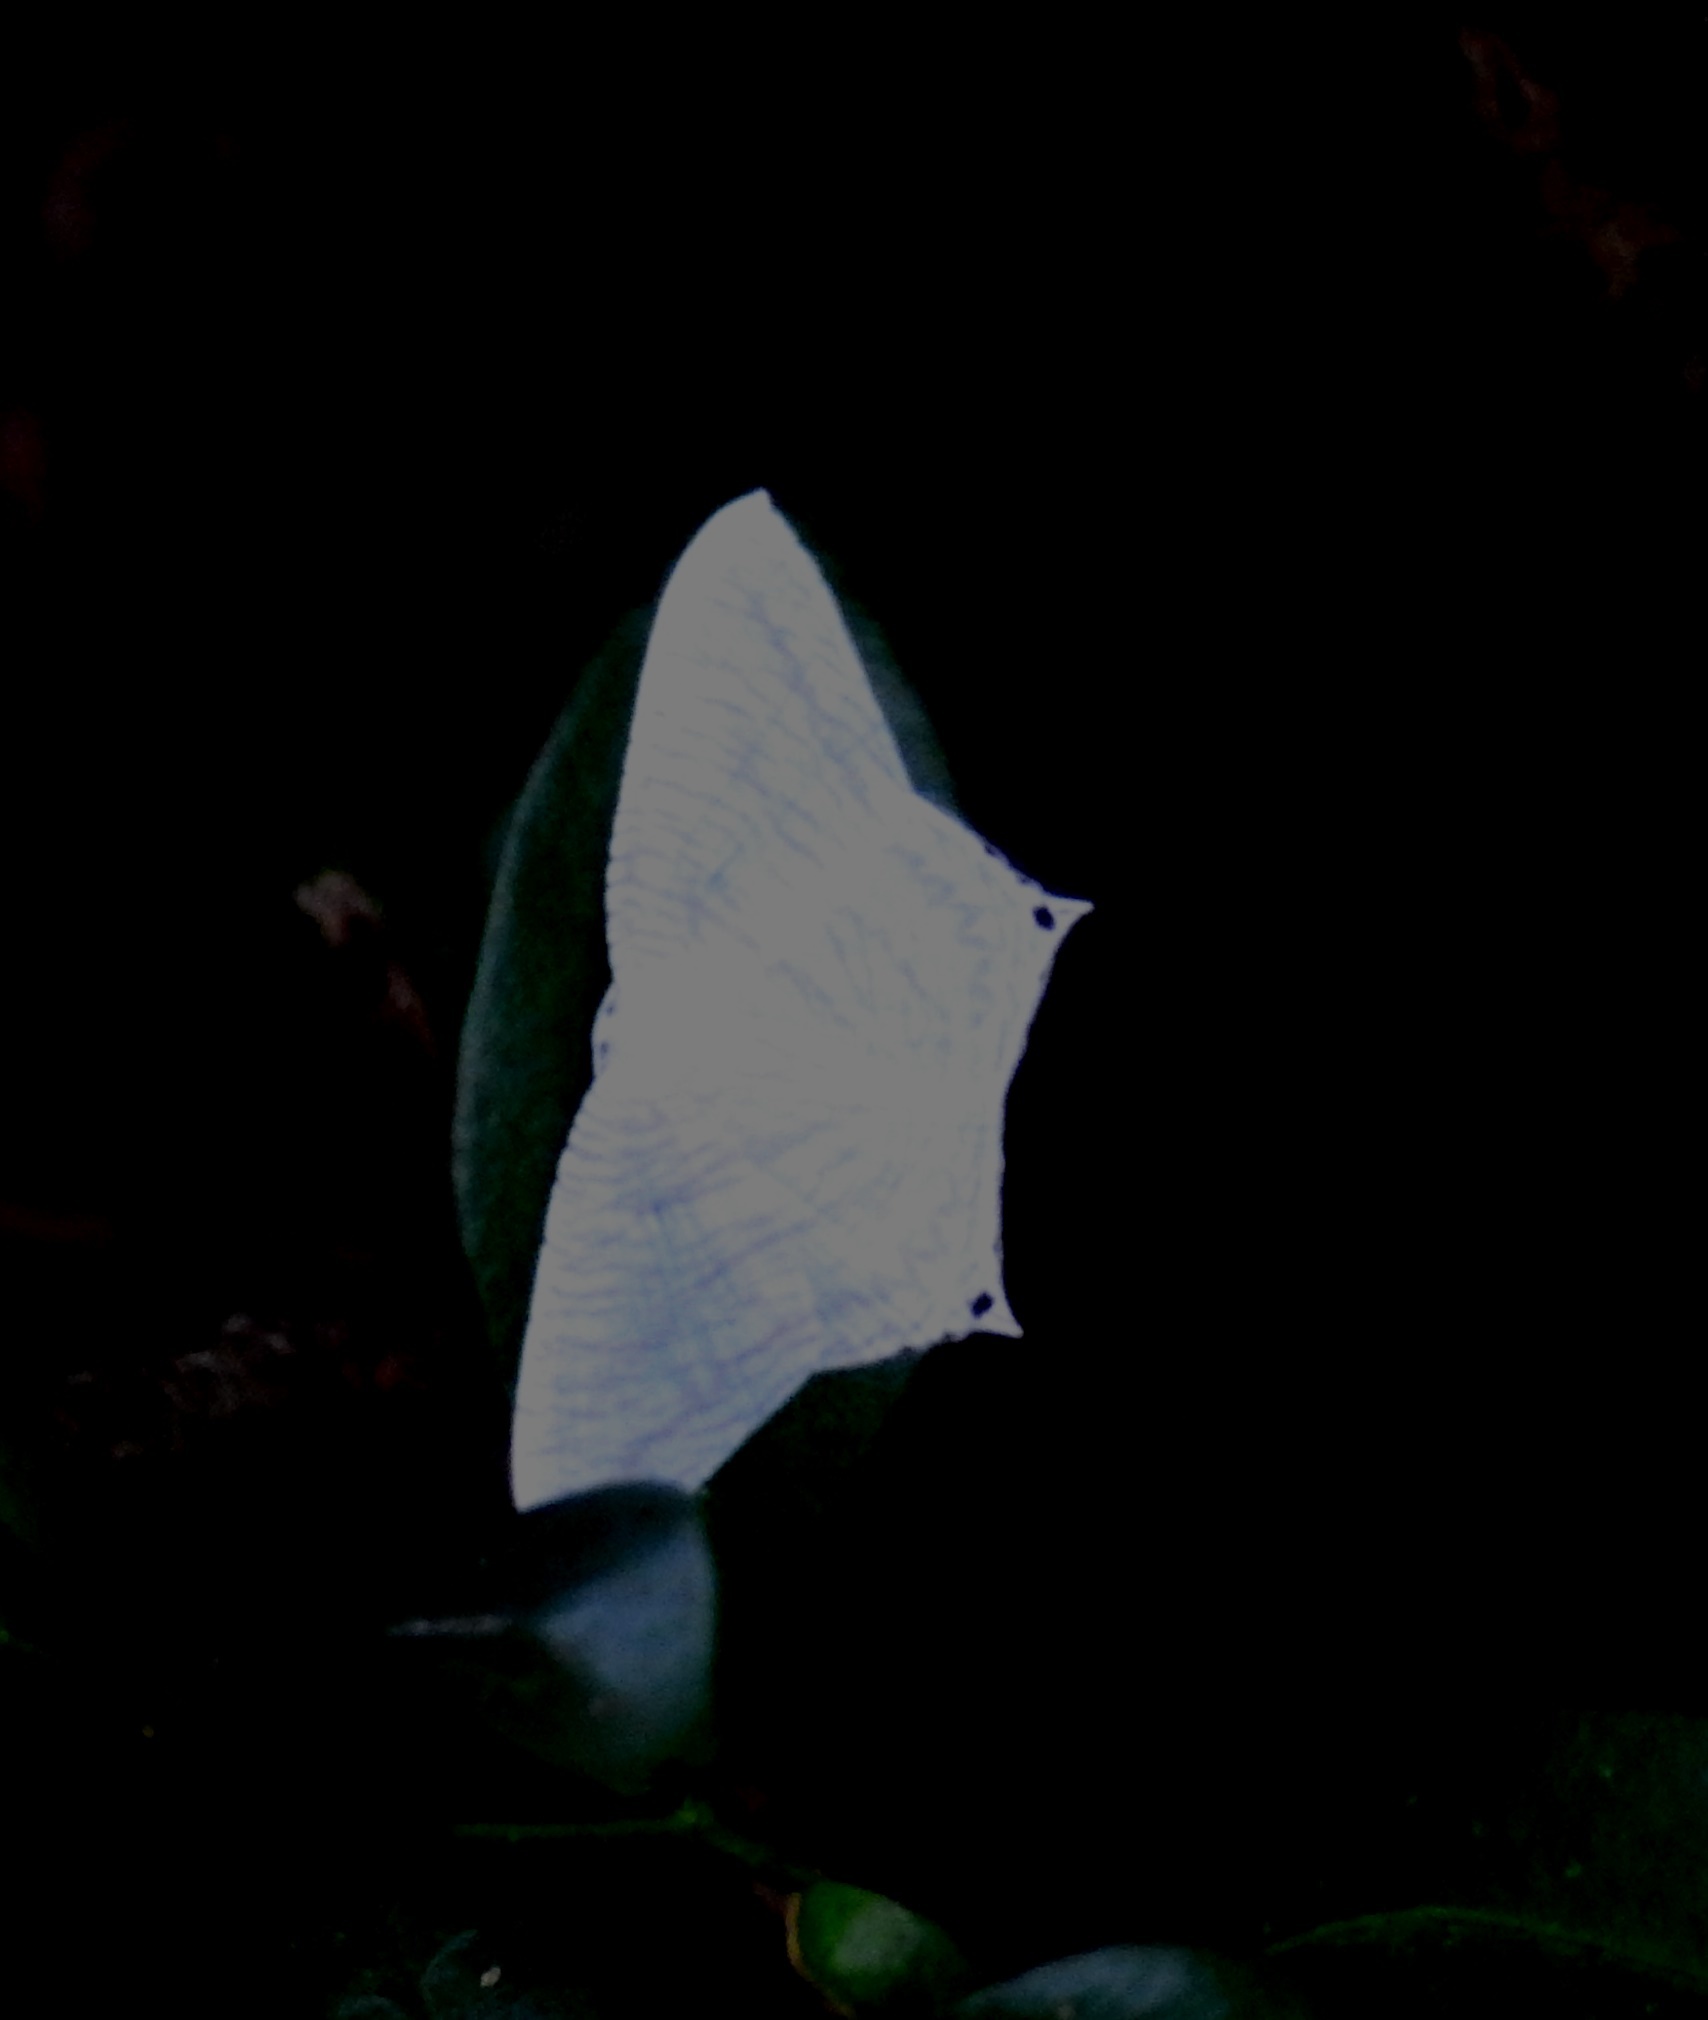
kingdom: Animalia
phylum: Arthropoda
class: Insecta
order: Lepidoptera
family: Uraniidae
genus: Micronia
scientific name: Micronia aculeata
